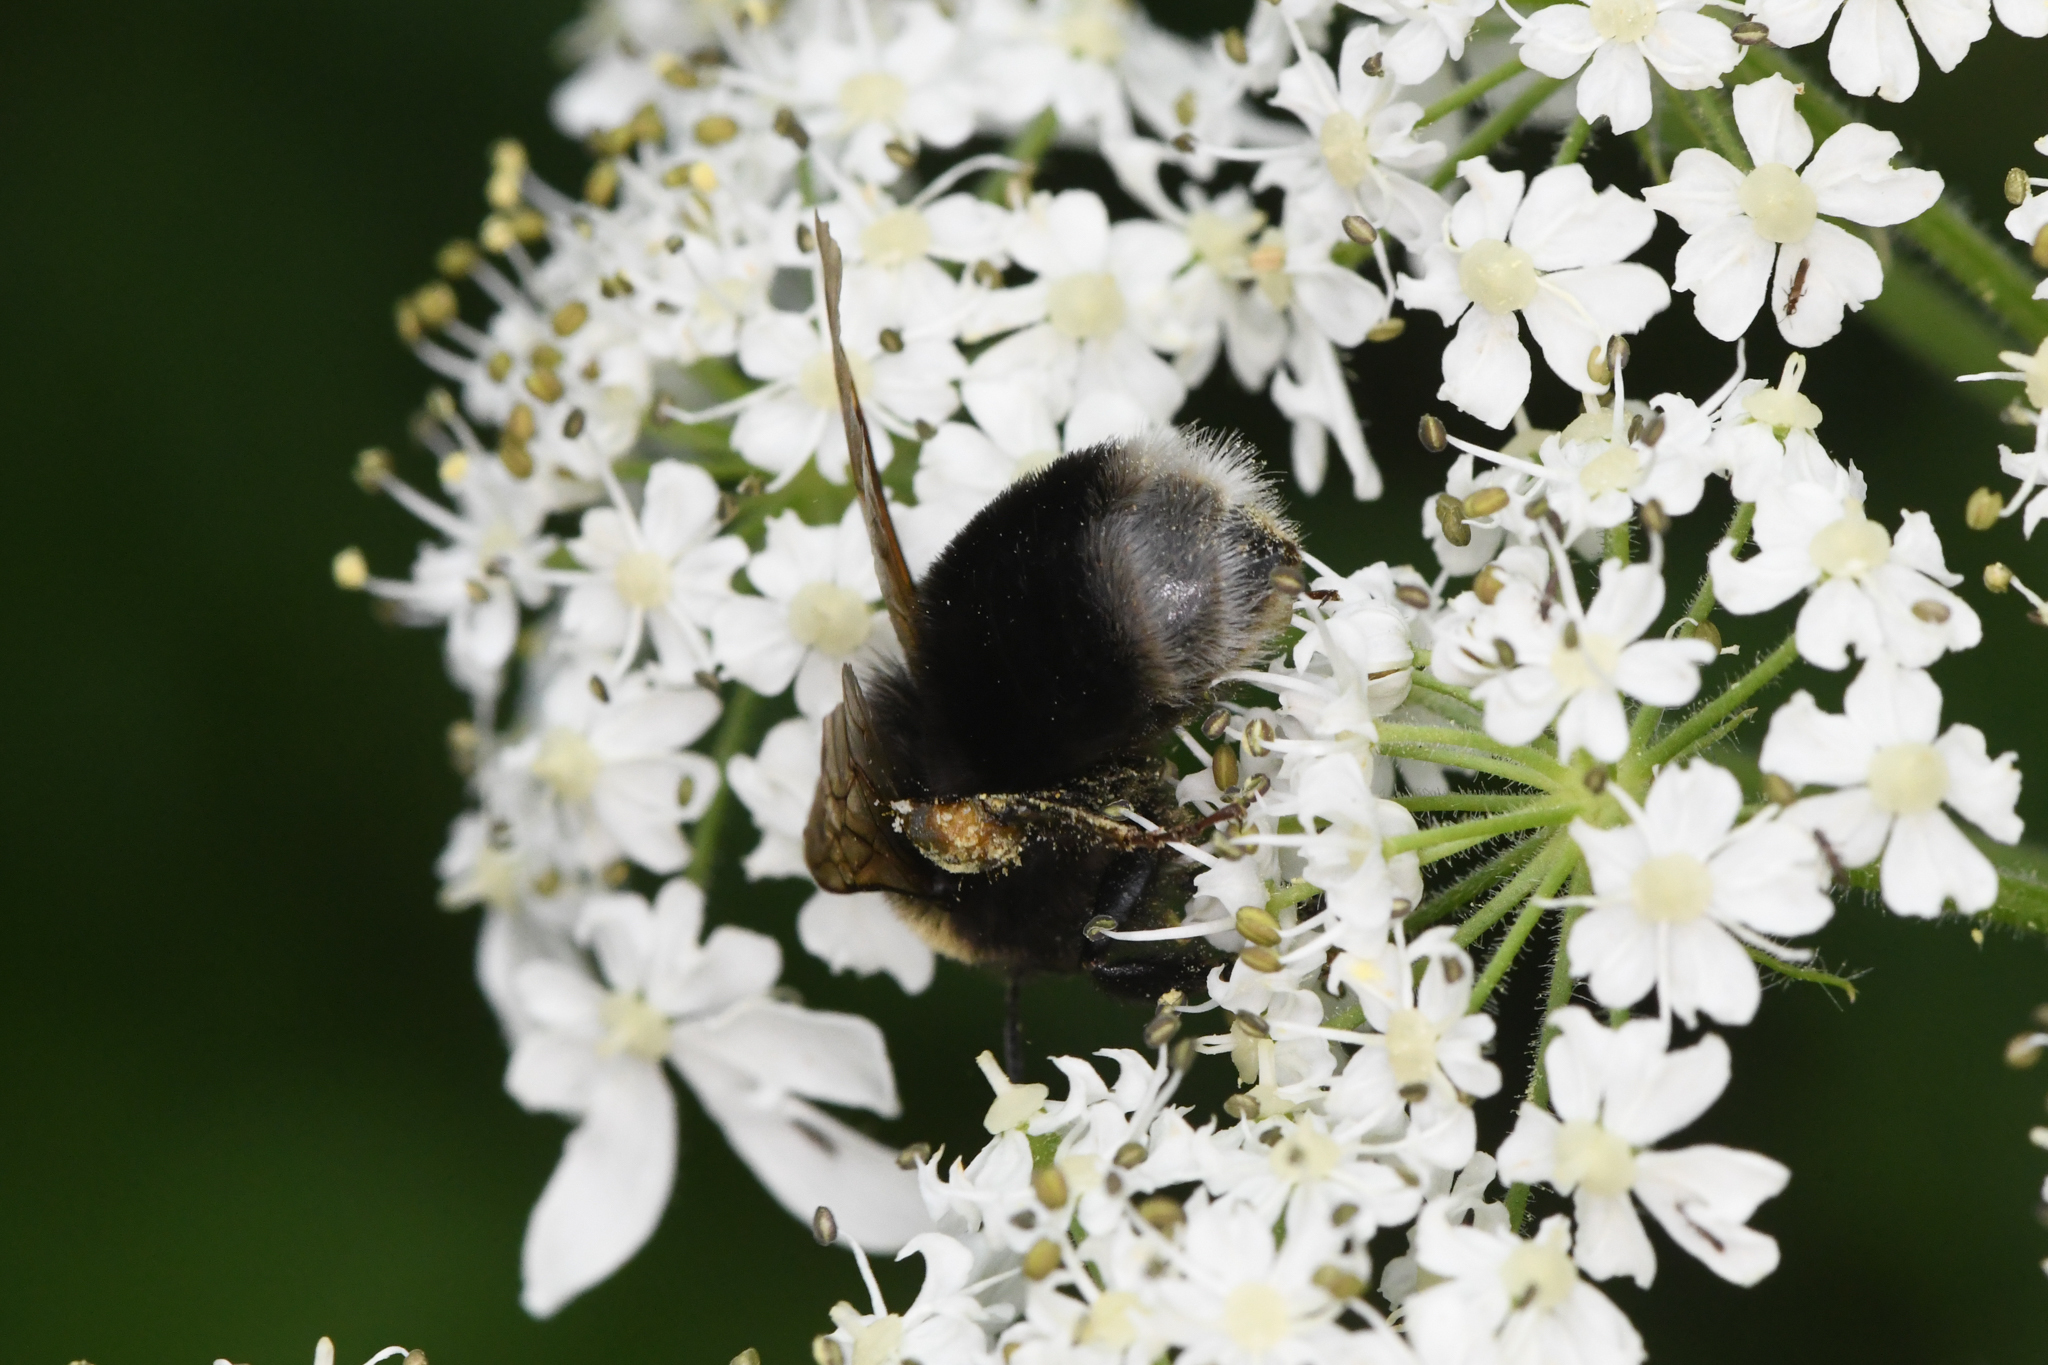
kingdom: Animalia
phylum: Arthropoda
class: Insecta
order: Hymenoptera
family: Apidae
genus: Bombus
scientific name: Bombus occidentalis
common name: Western bumble bee
